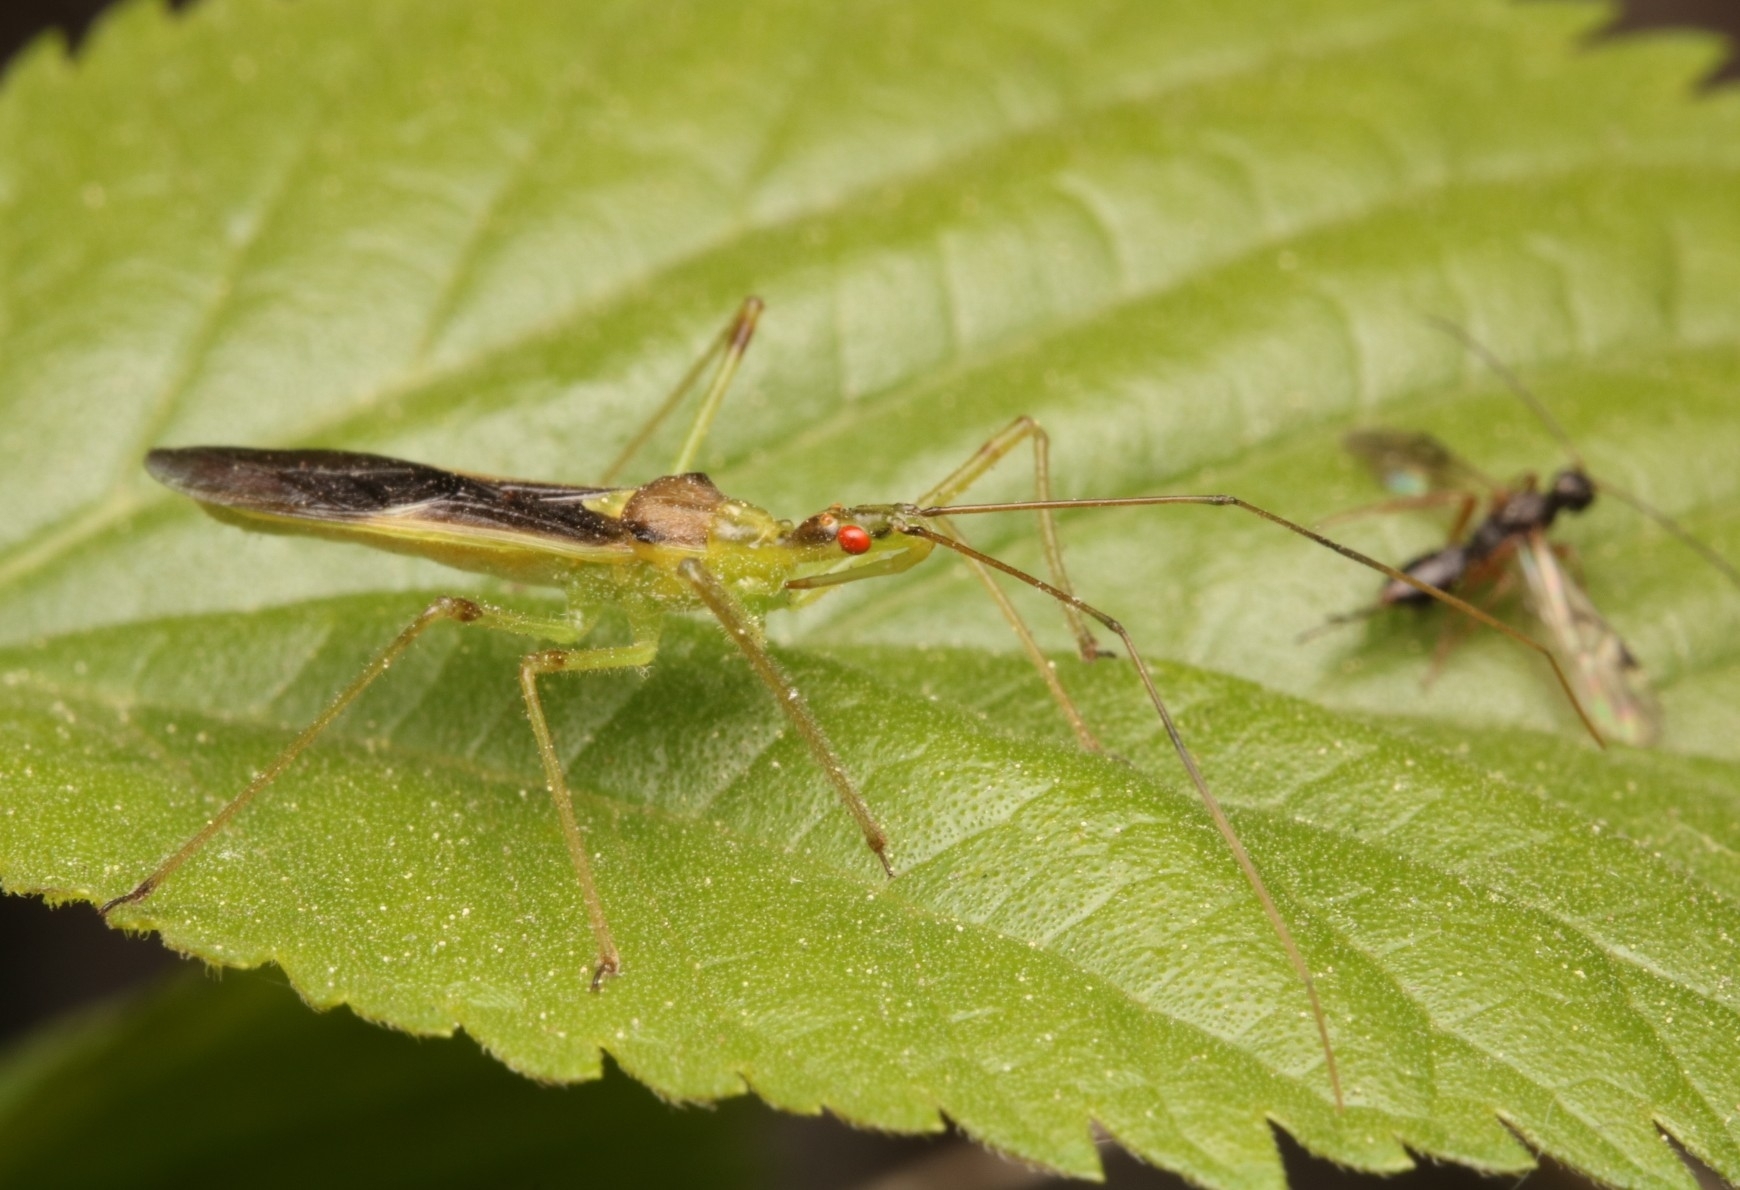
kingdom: Animalia
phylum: Arthropoda
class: Insecta
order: Hemiptera
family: Reduviidae
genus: Zelus
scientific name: Zelus luridus
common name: Pale green assassin bug
